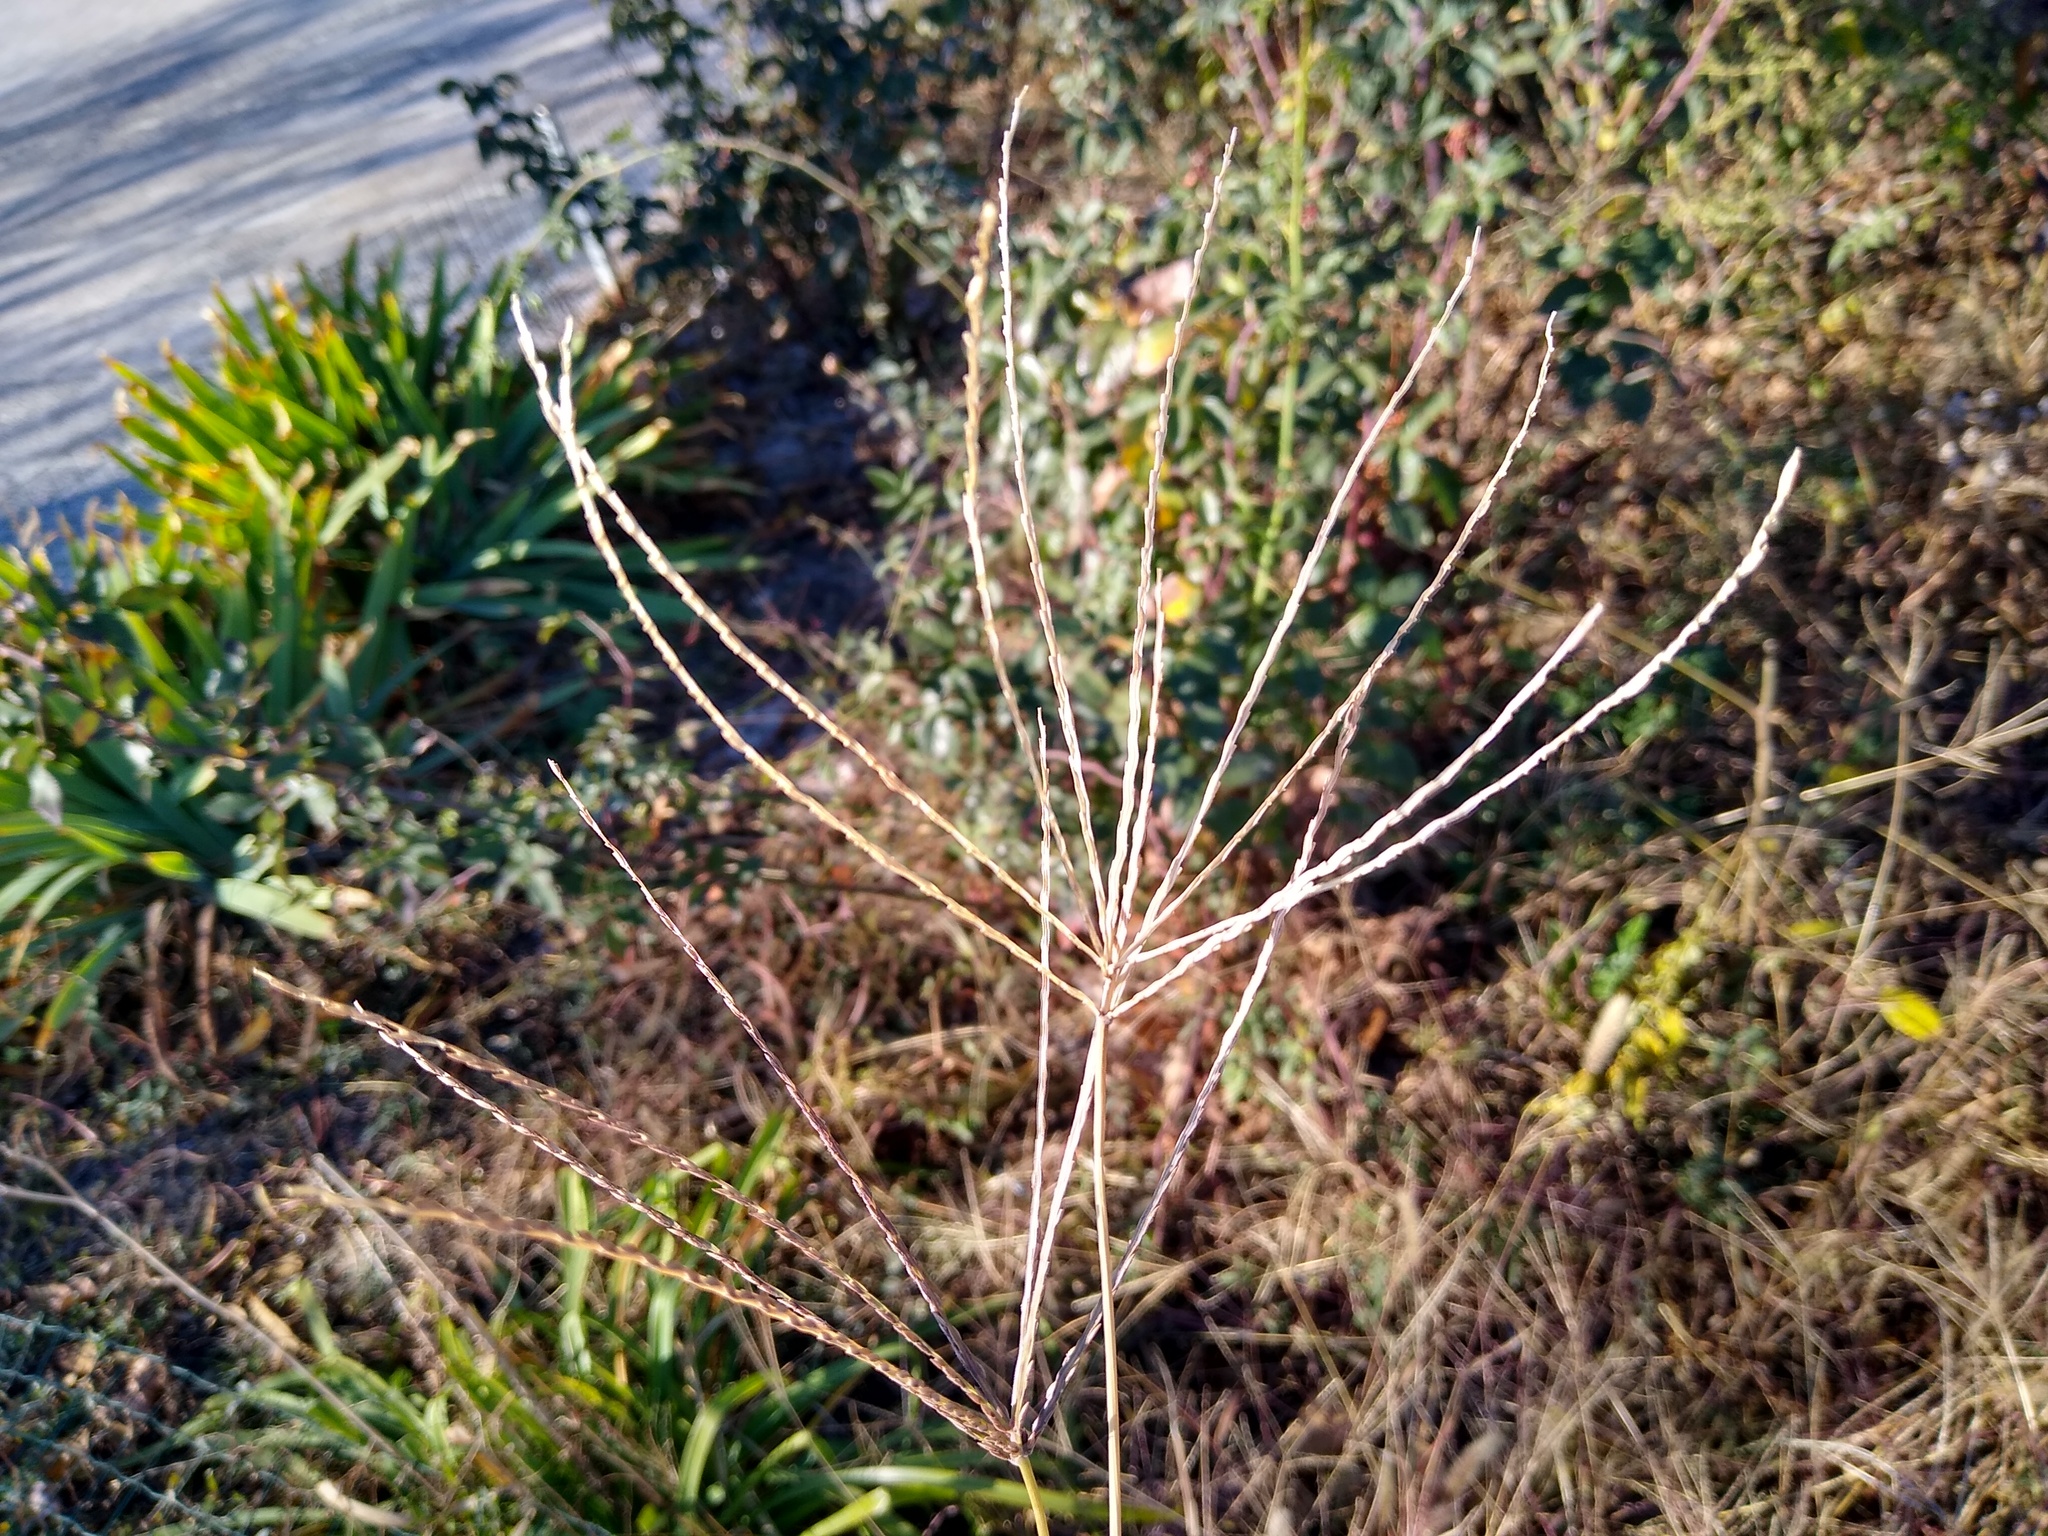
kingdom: Plantae
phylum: Tracheophyta
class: Liliopsida
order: Poales
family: Poaceae
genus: Digitaria
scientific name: Digitaria sanguinalis
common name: Hairy crabgrass
